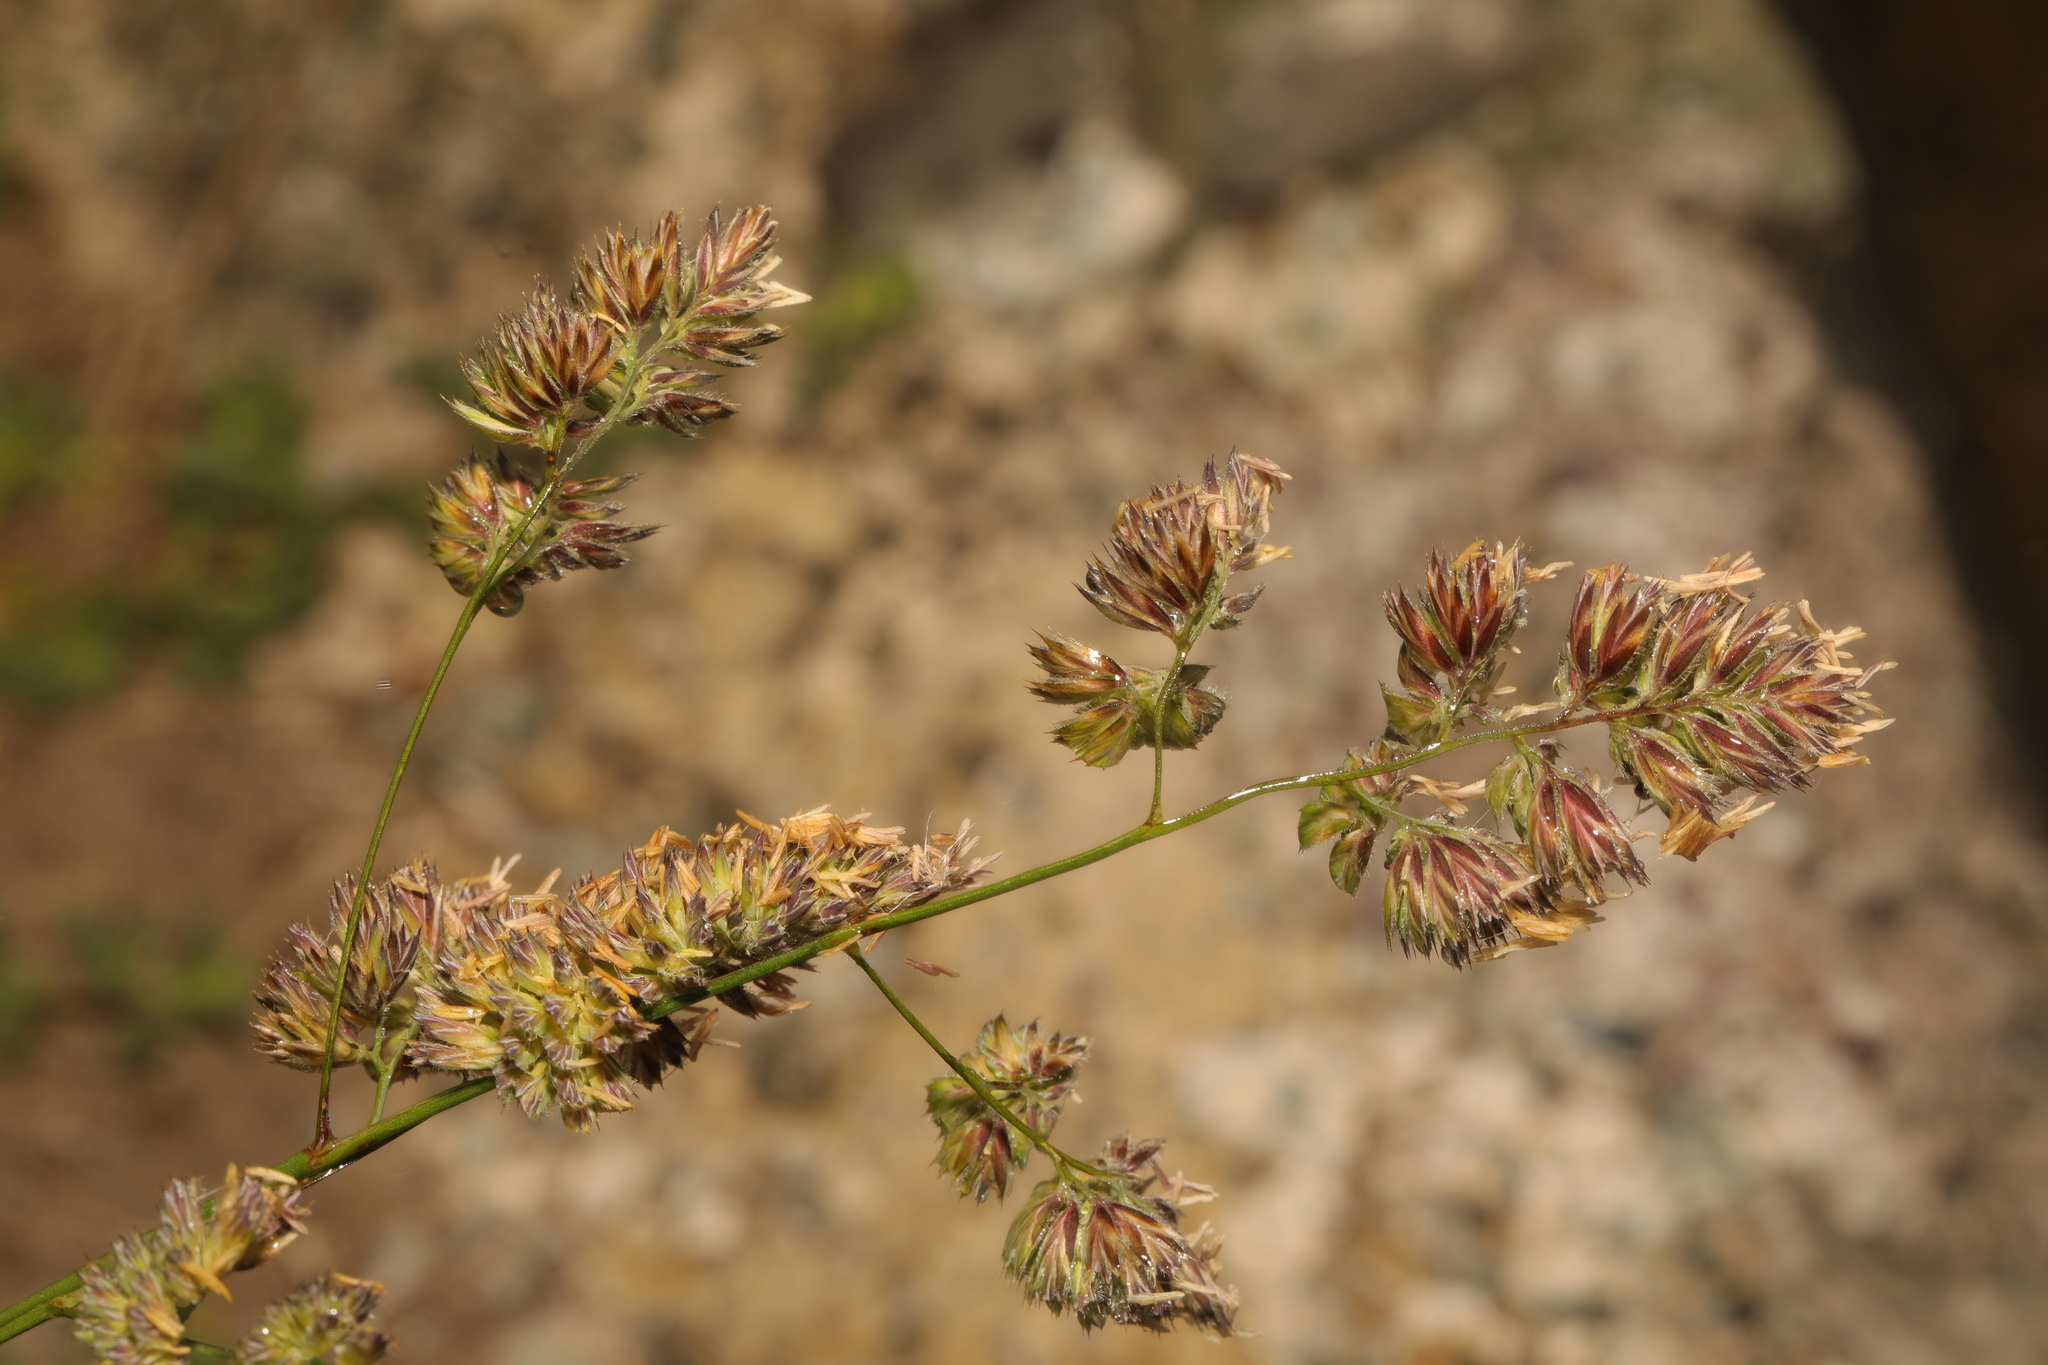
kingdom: Plantae
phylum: Tracheophyta
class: Liliopsida
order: Poales
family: Poaceae
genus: Dactylis
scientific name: Dactylis glomerata
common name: Orchardgrass
